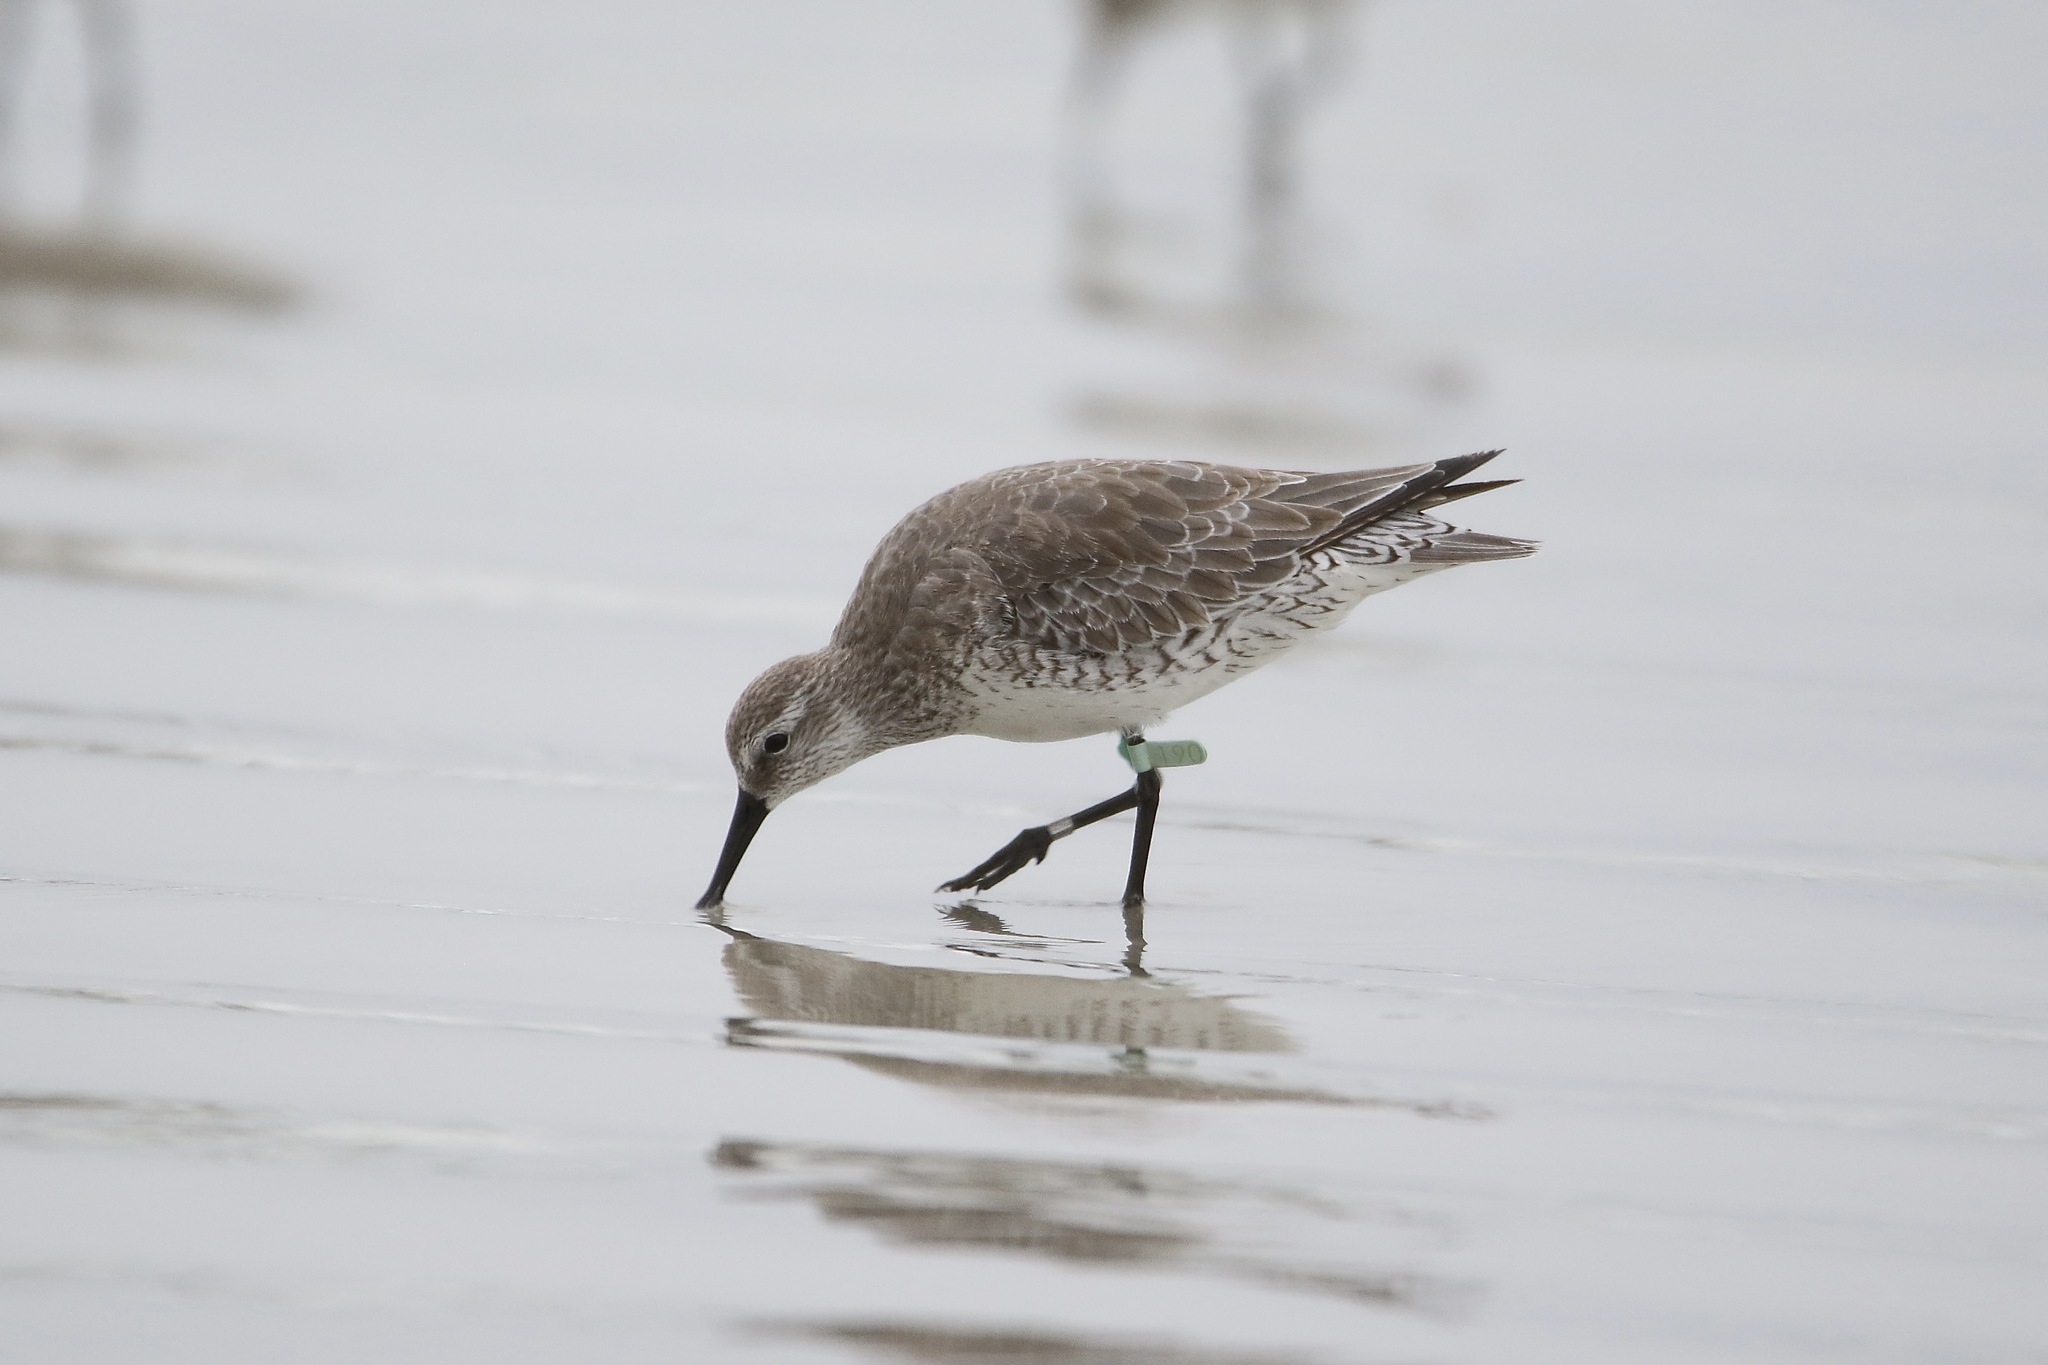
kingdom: Animalia
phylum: Chordata
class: Aves
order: Charadriiformes
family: Scolopacidae
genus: Calidris
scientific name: Calidris canutus
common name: Red knot
